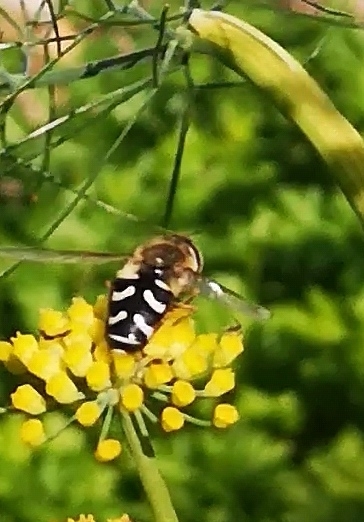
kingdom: Animalia
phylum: Arthropoda
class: Insecta
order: Diptera
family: Syrphidae
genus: Scaeva
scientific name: Scaeva pyrastri
